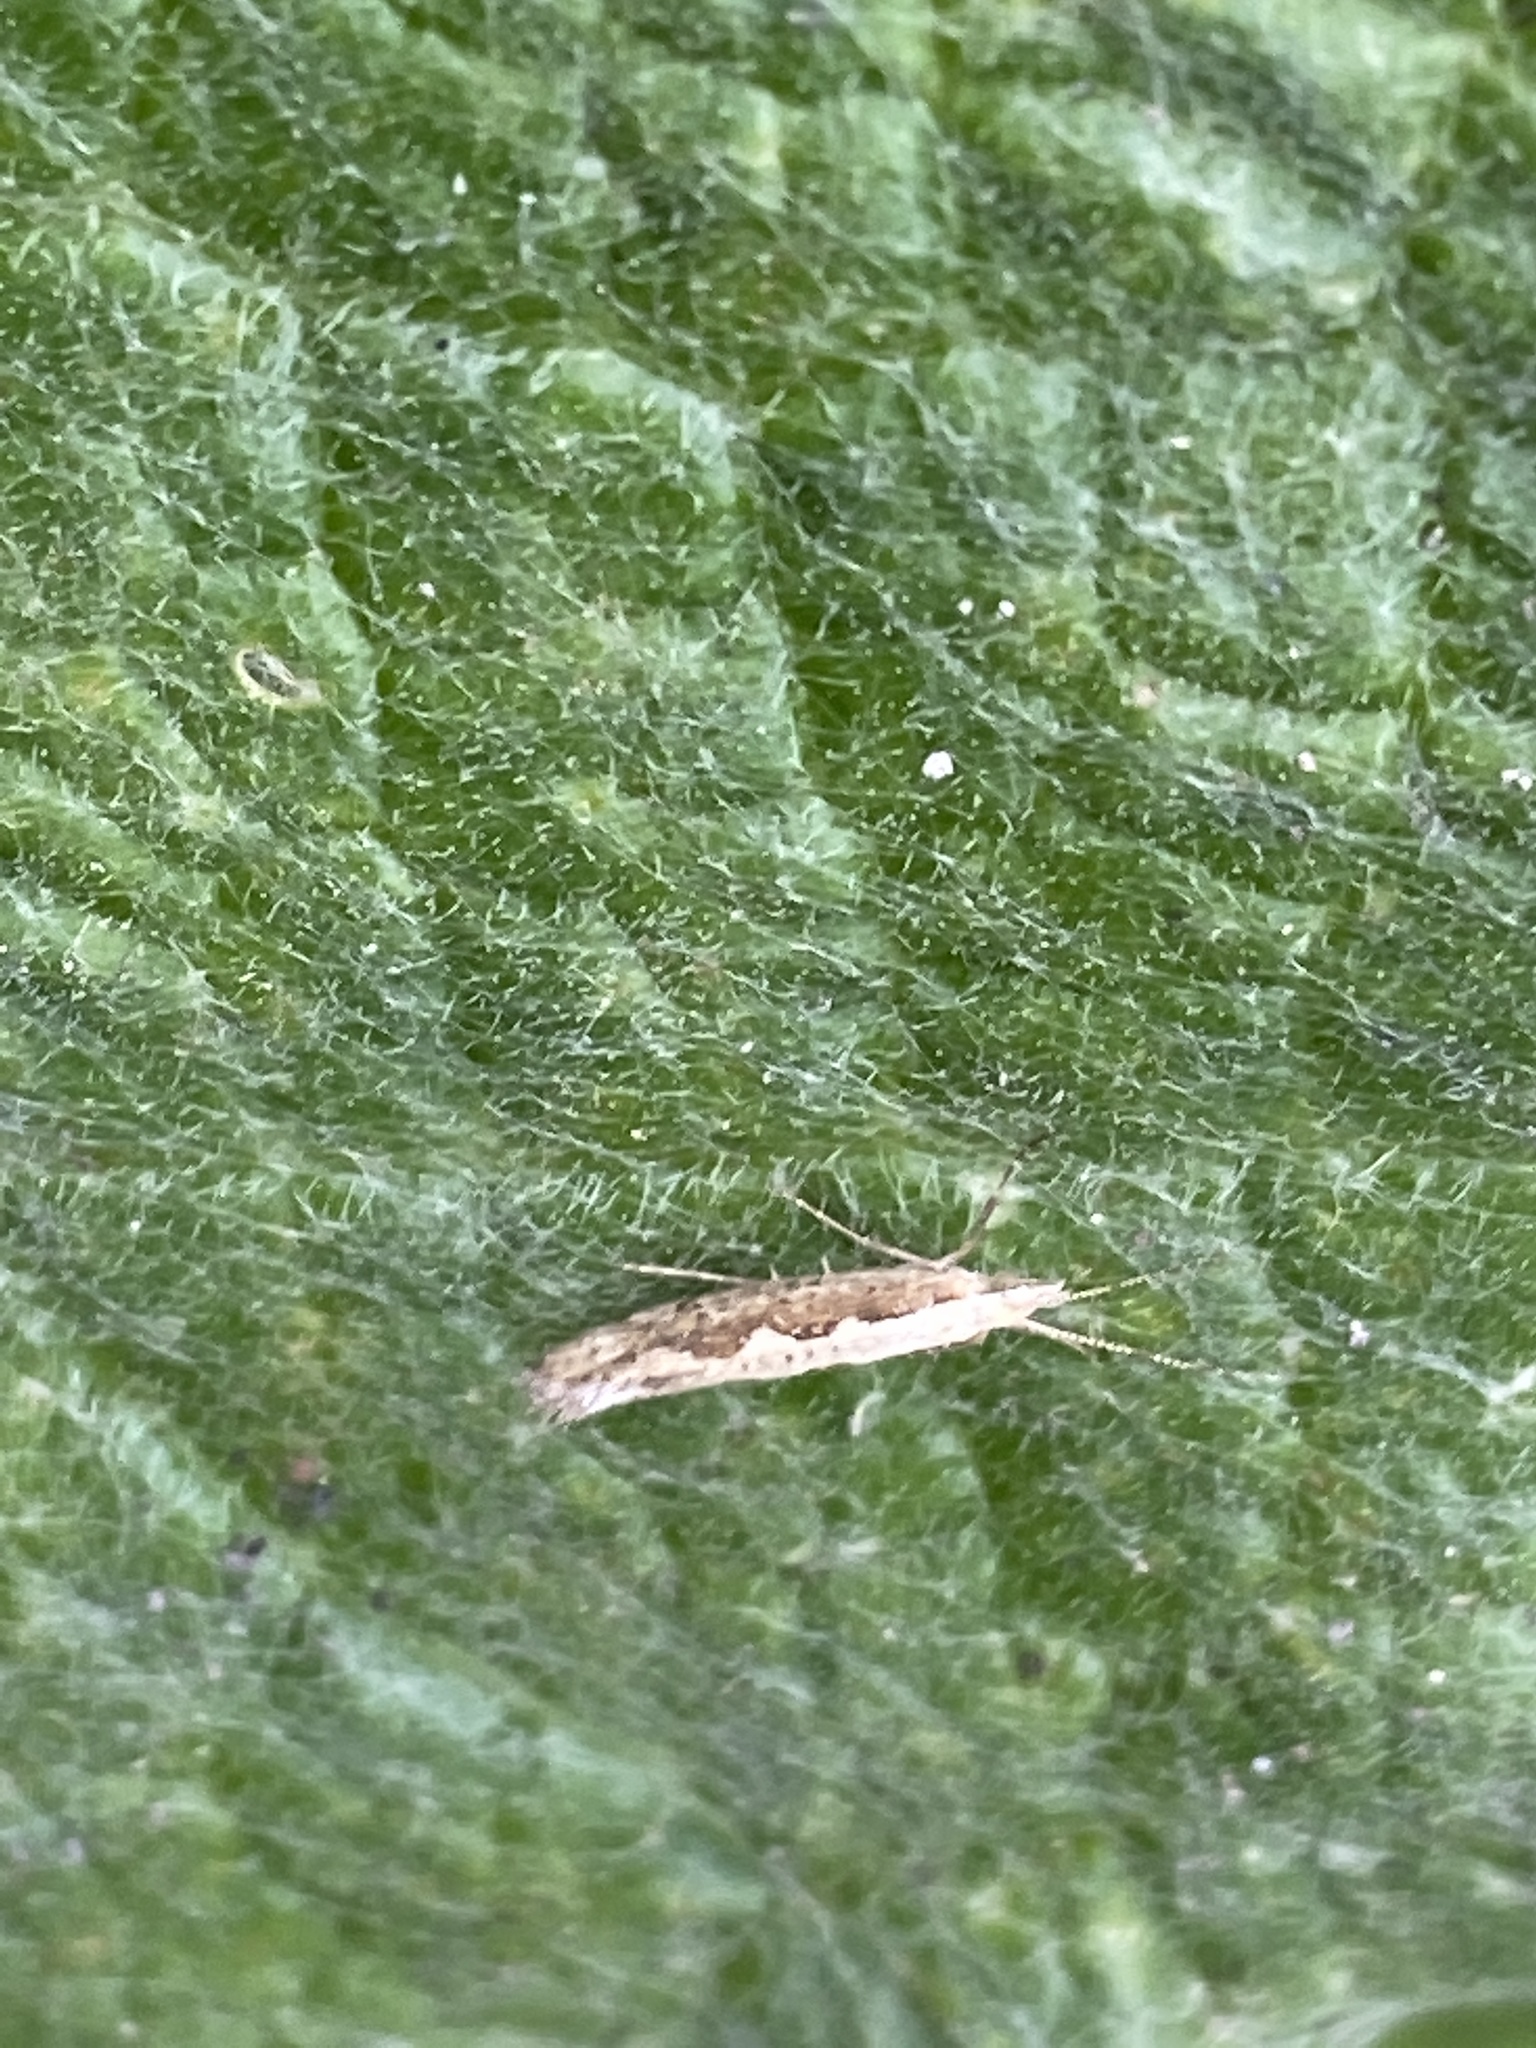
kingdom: Animalia
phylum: Arthropoda
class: Insecta
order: Lepidoptera
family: Plutellidae
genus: Plutella
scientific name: Plutella xylostella
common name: Diamond-back moth
